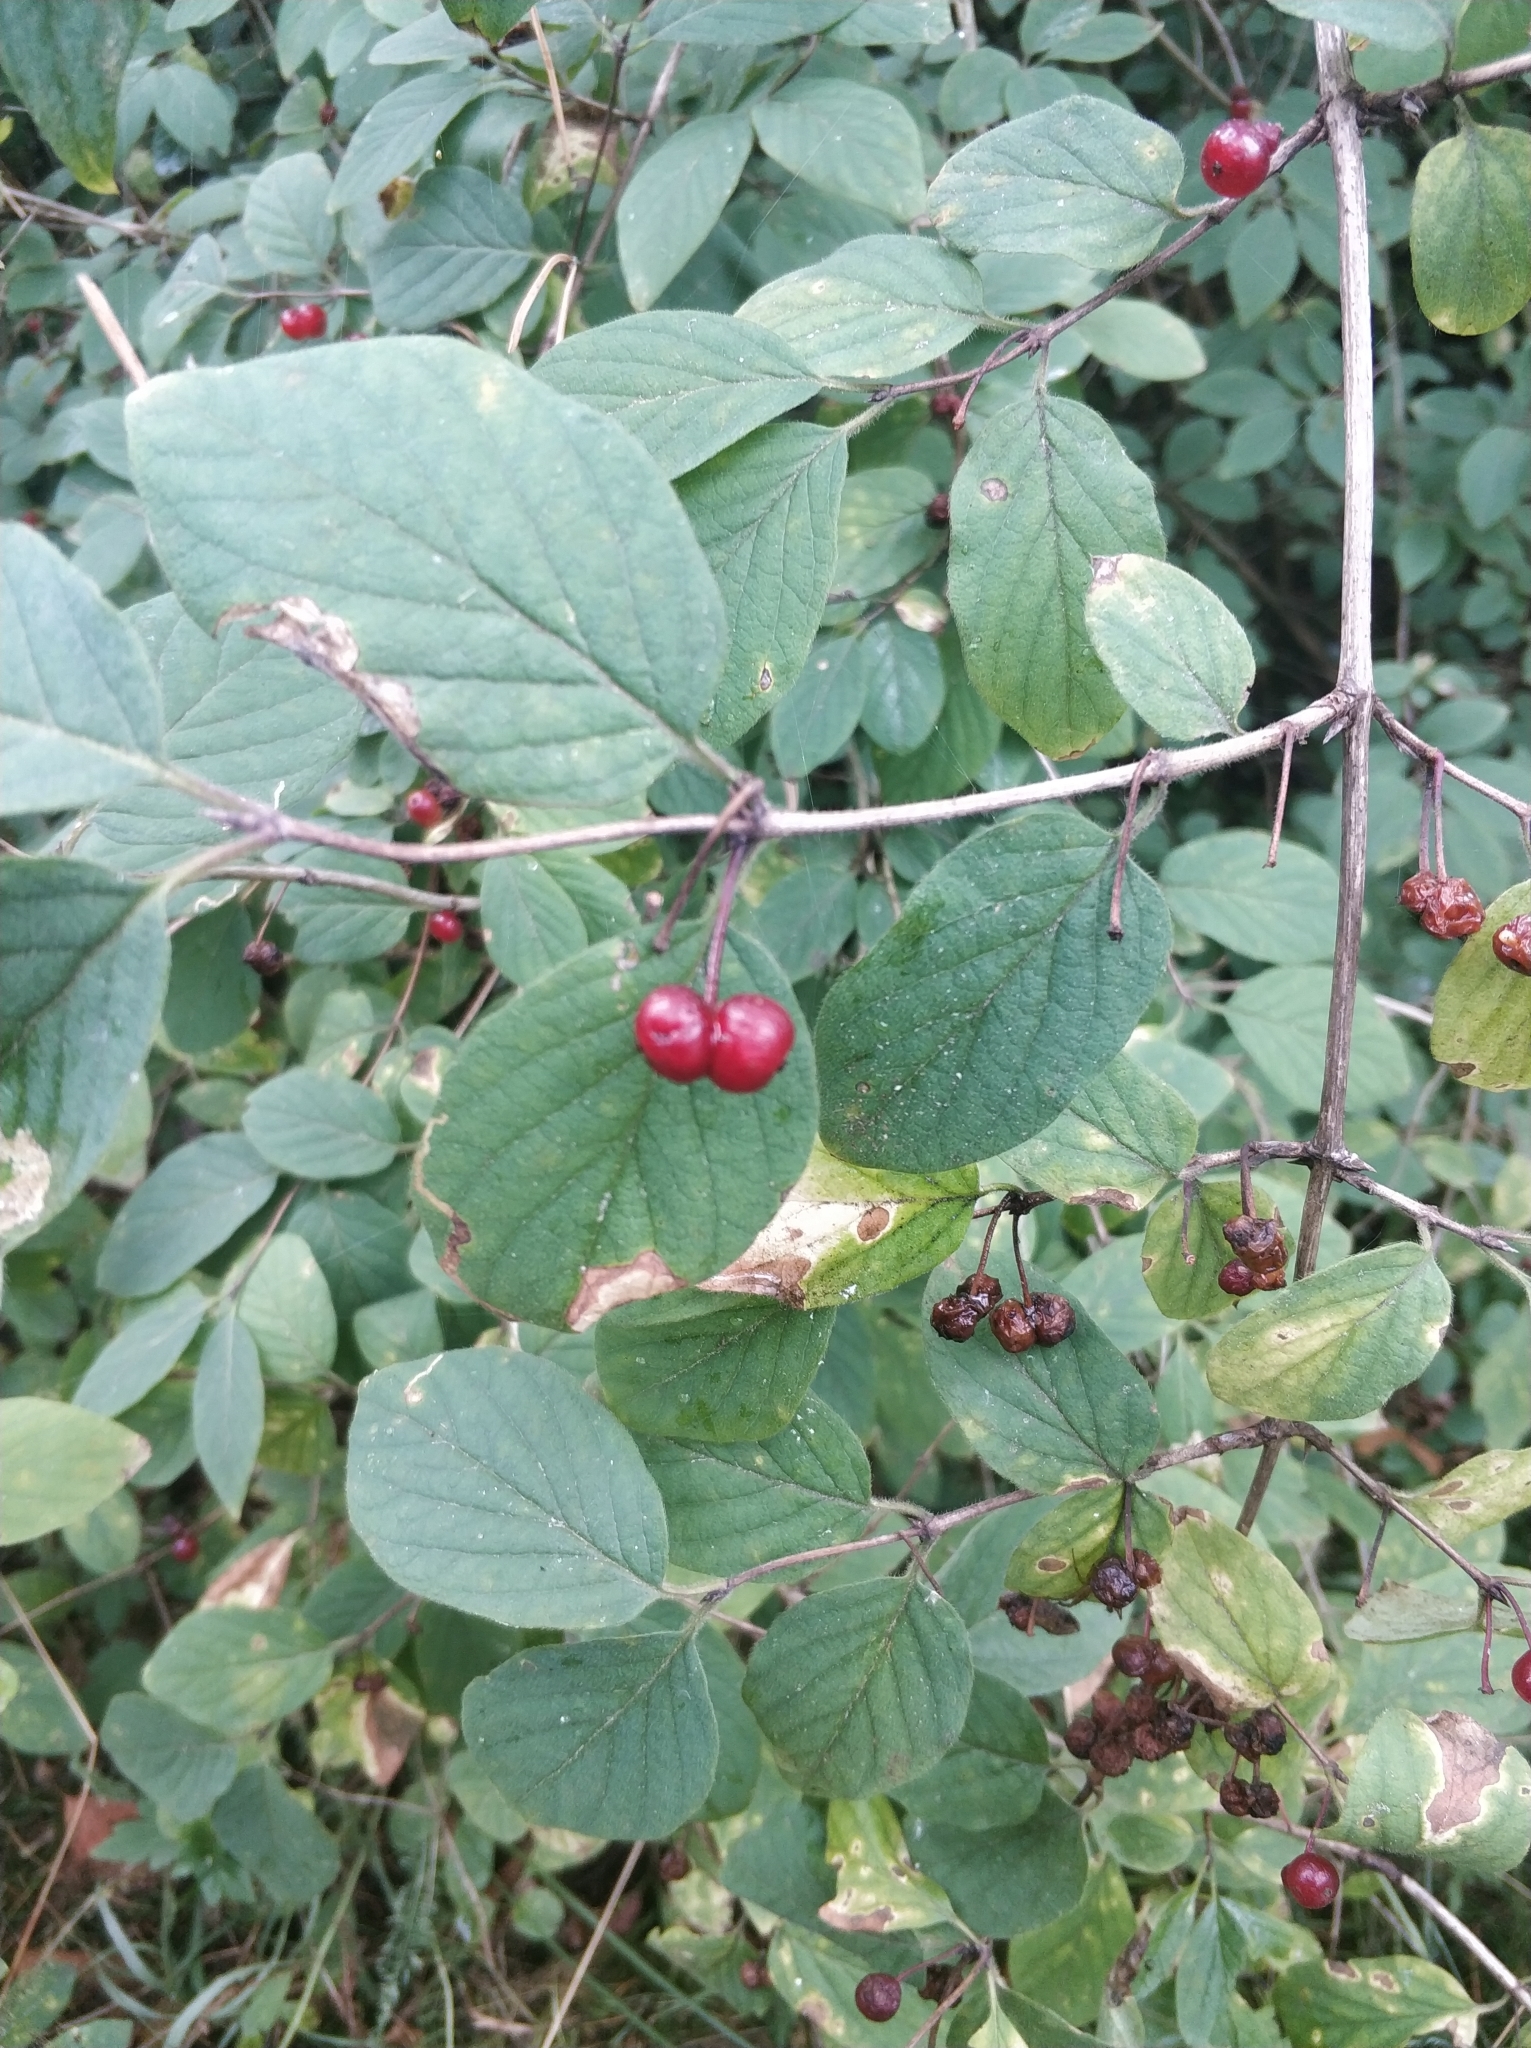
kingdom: Plantae
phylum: Tracheophyta
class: Magnoliopsida
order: Dipsacales
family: Caprifoliaceae
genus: Lonicera
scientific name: Lonicera xylosteum
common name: Fly honeysuckle
